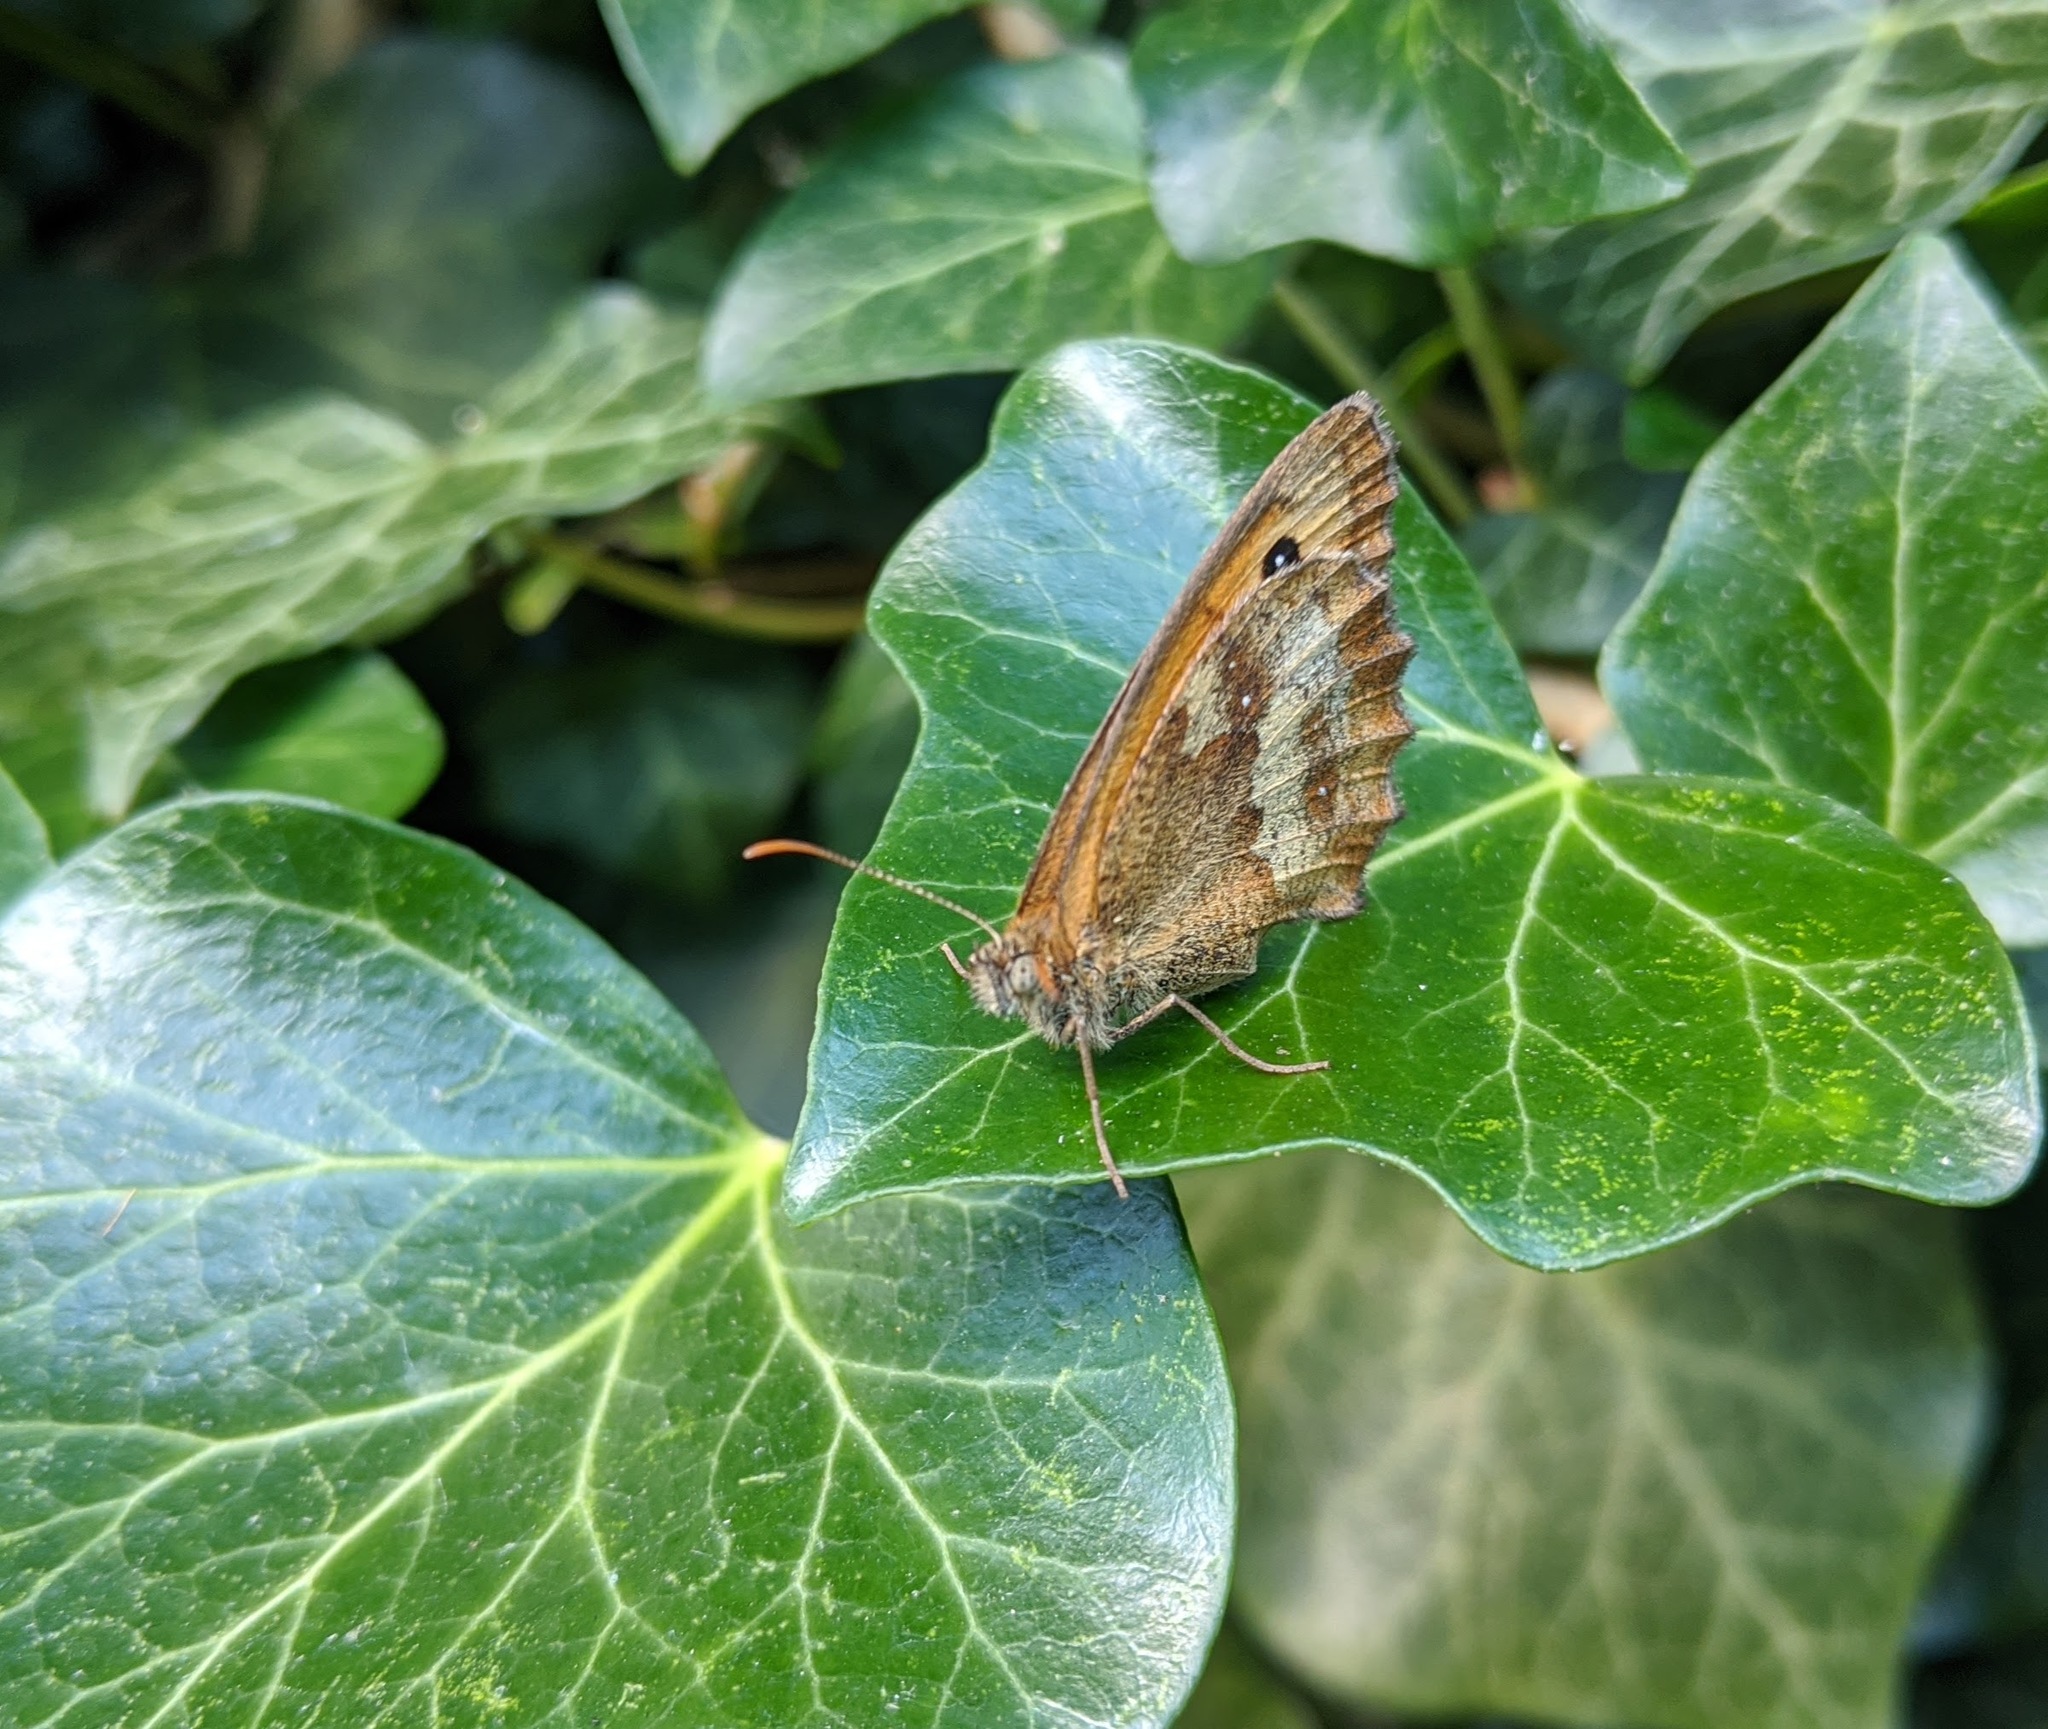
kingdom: Animalia
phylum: Arthropoda
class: Insecta
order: Lepidoptera
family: Nymphalidae
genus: Pyronia
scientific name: Pyronia tithonus
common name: Gatekeeper
